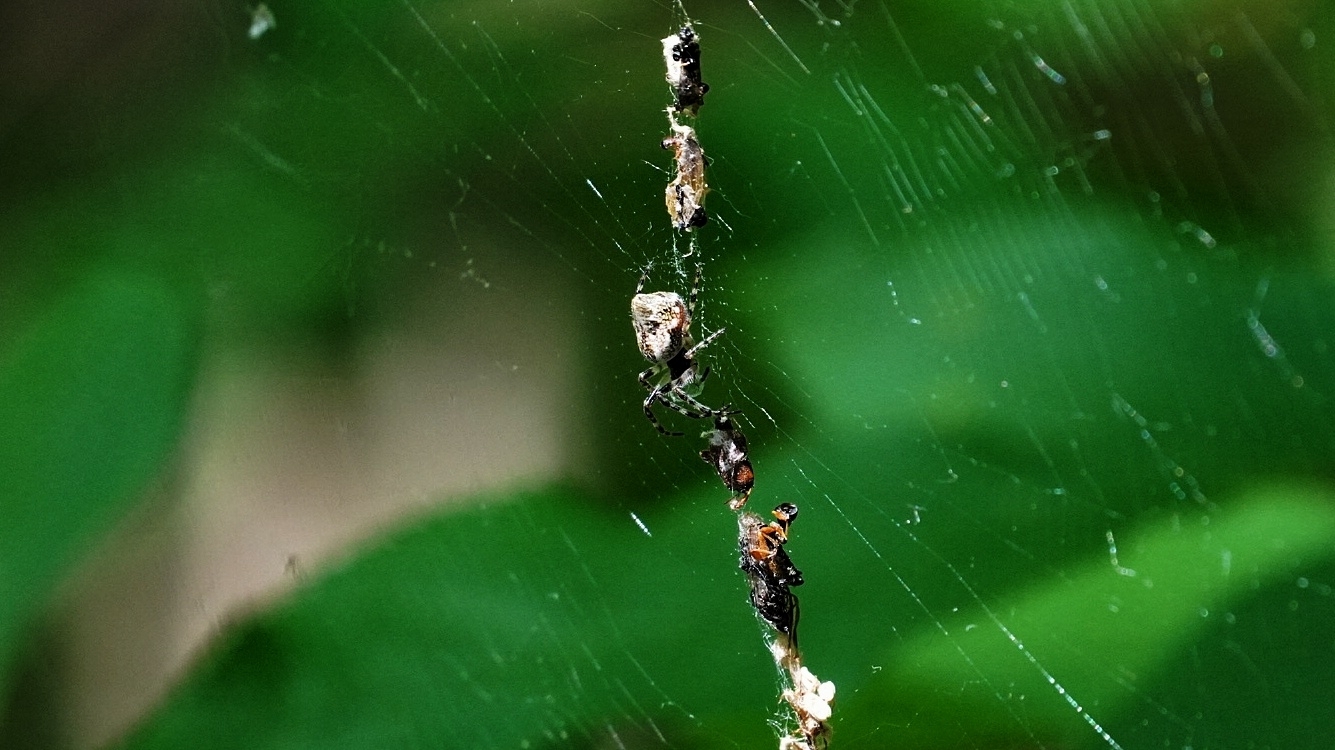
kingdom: Animalia
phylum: Arthropoda
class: Arachnida
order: Araneae
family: Araneidae
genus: Cyclosa
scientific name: Cyclosa conica
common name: Conical trashline orbweaver
